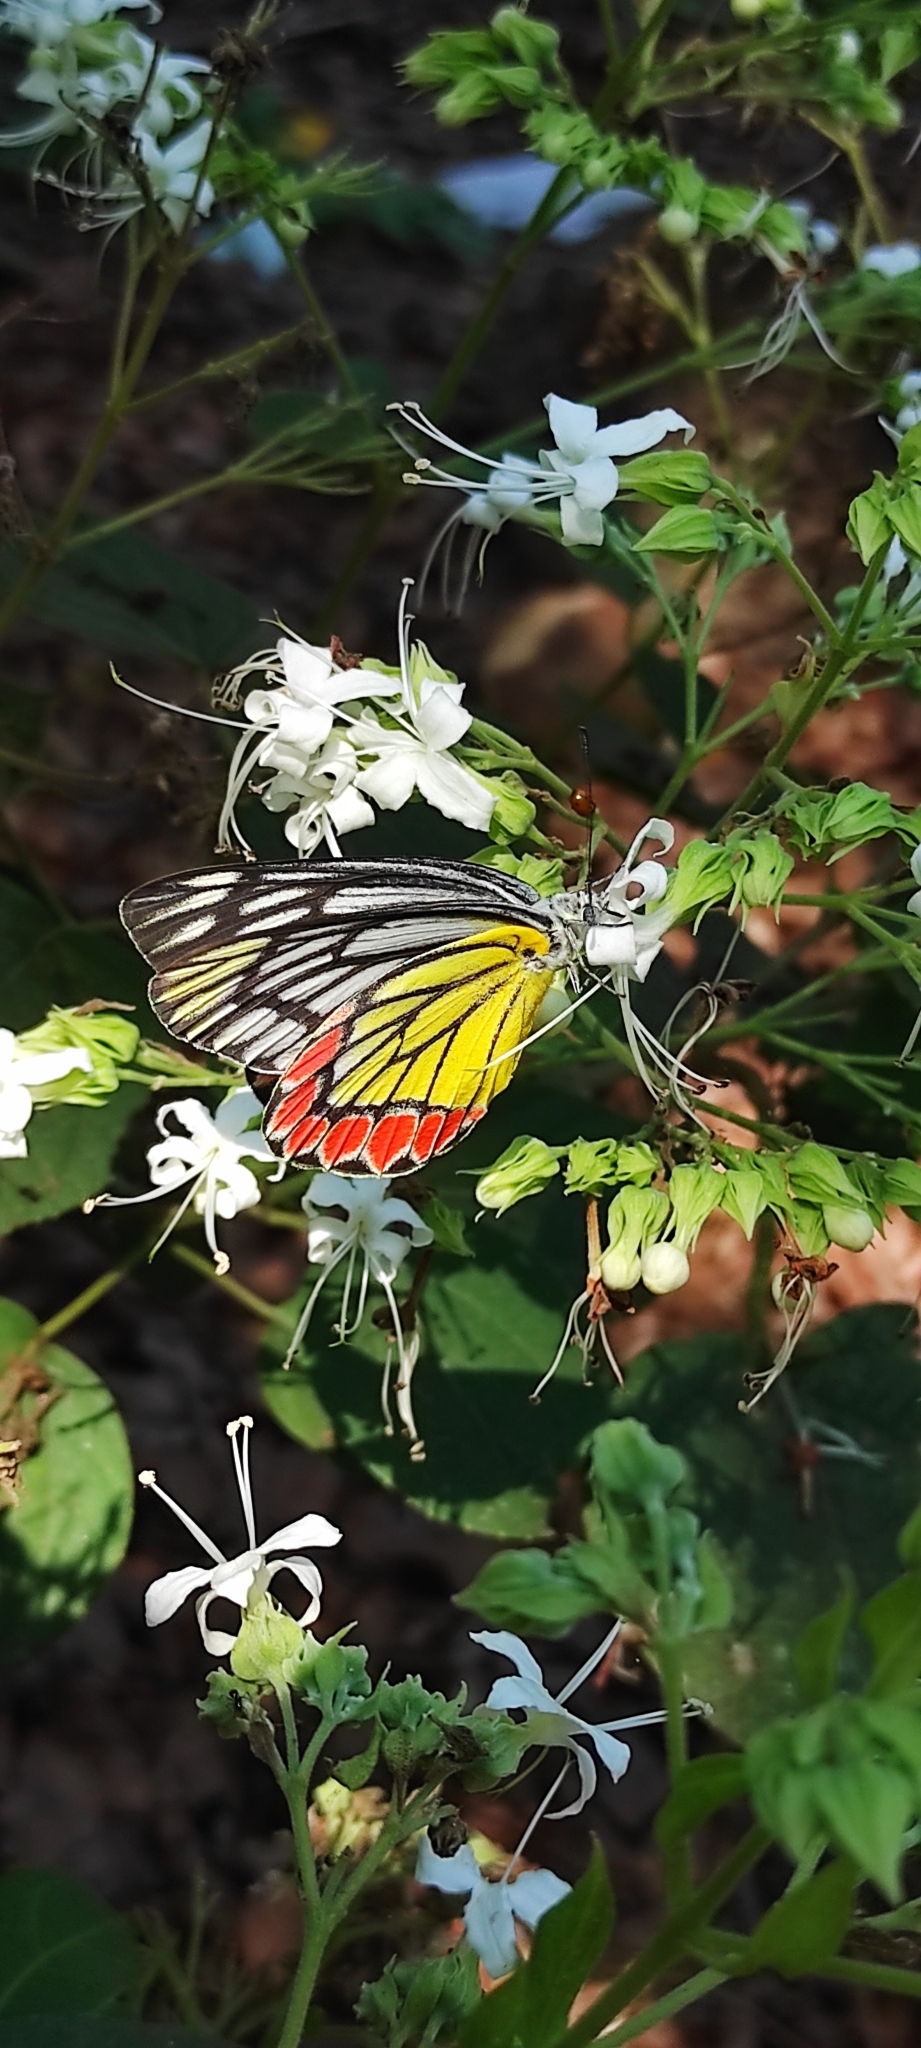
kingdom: Animalia
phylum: Arthropoda
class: Insecta
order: Lepidoptera
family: Pieridae
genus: Delias
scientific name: Delias eucharis
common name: Common jezebel
